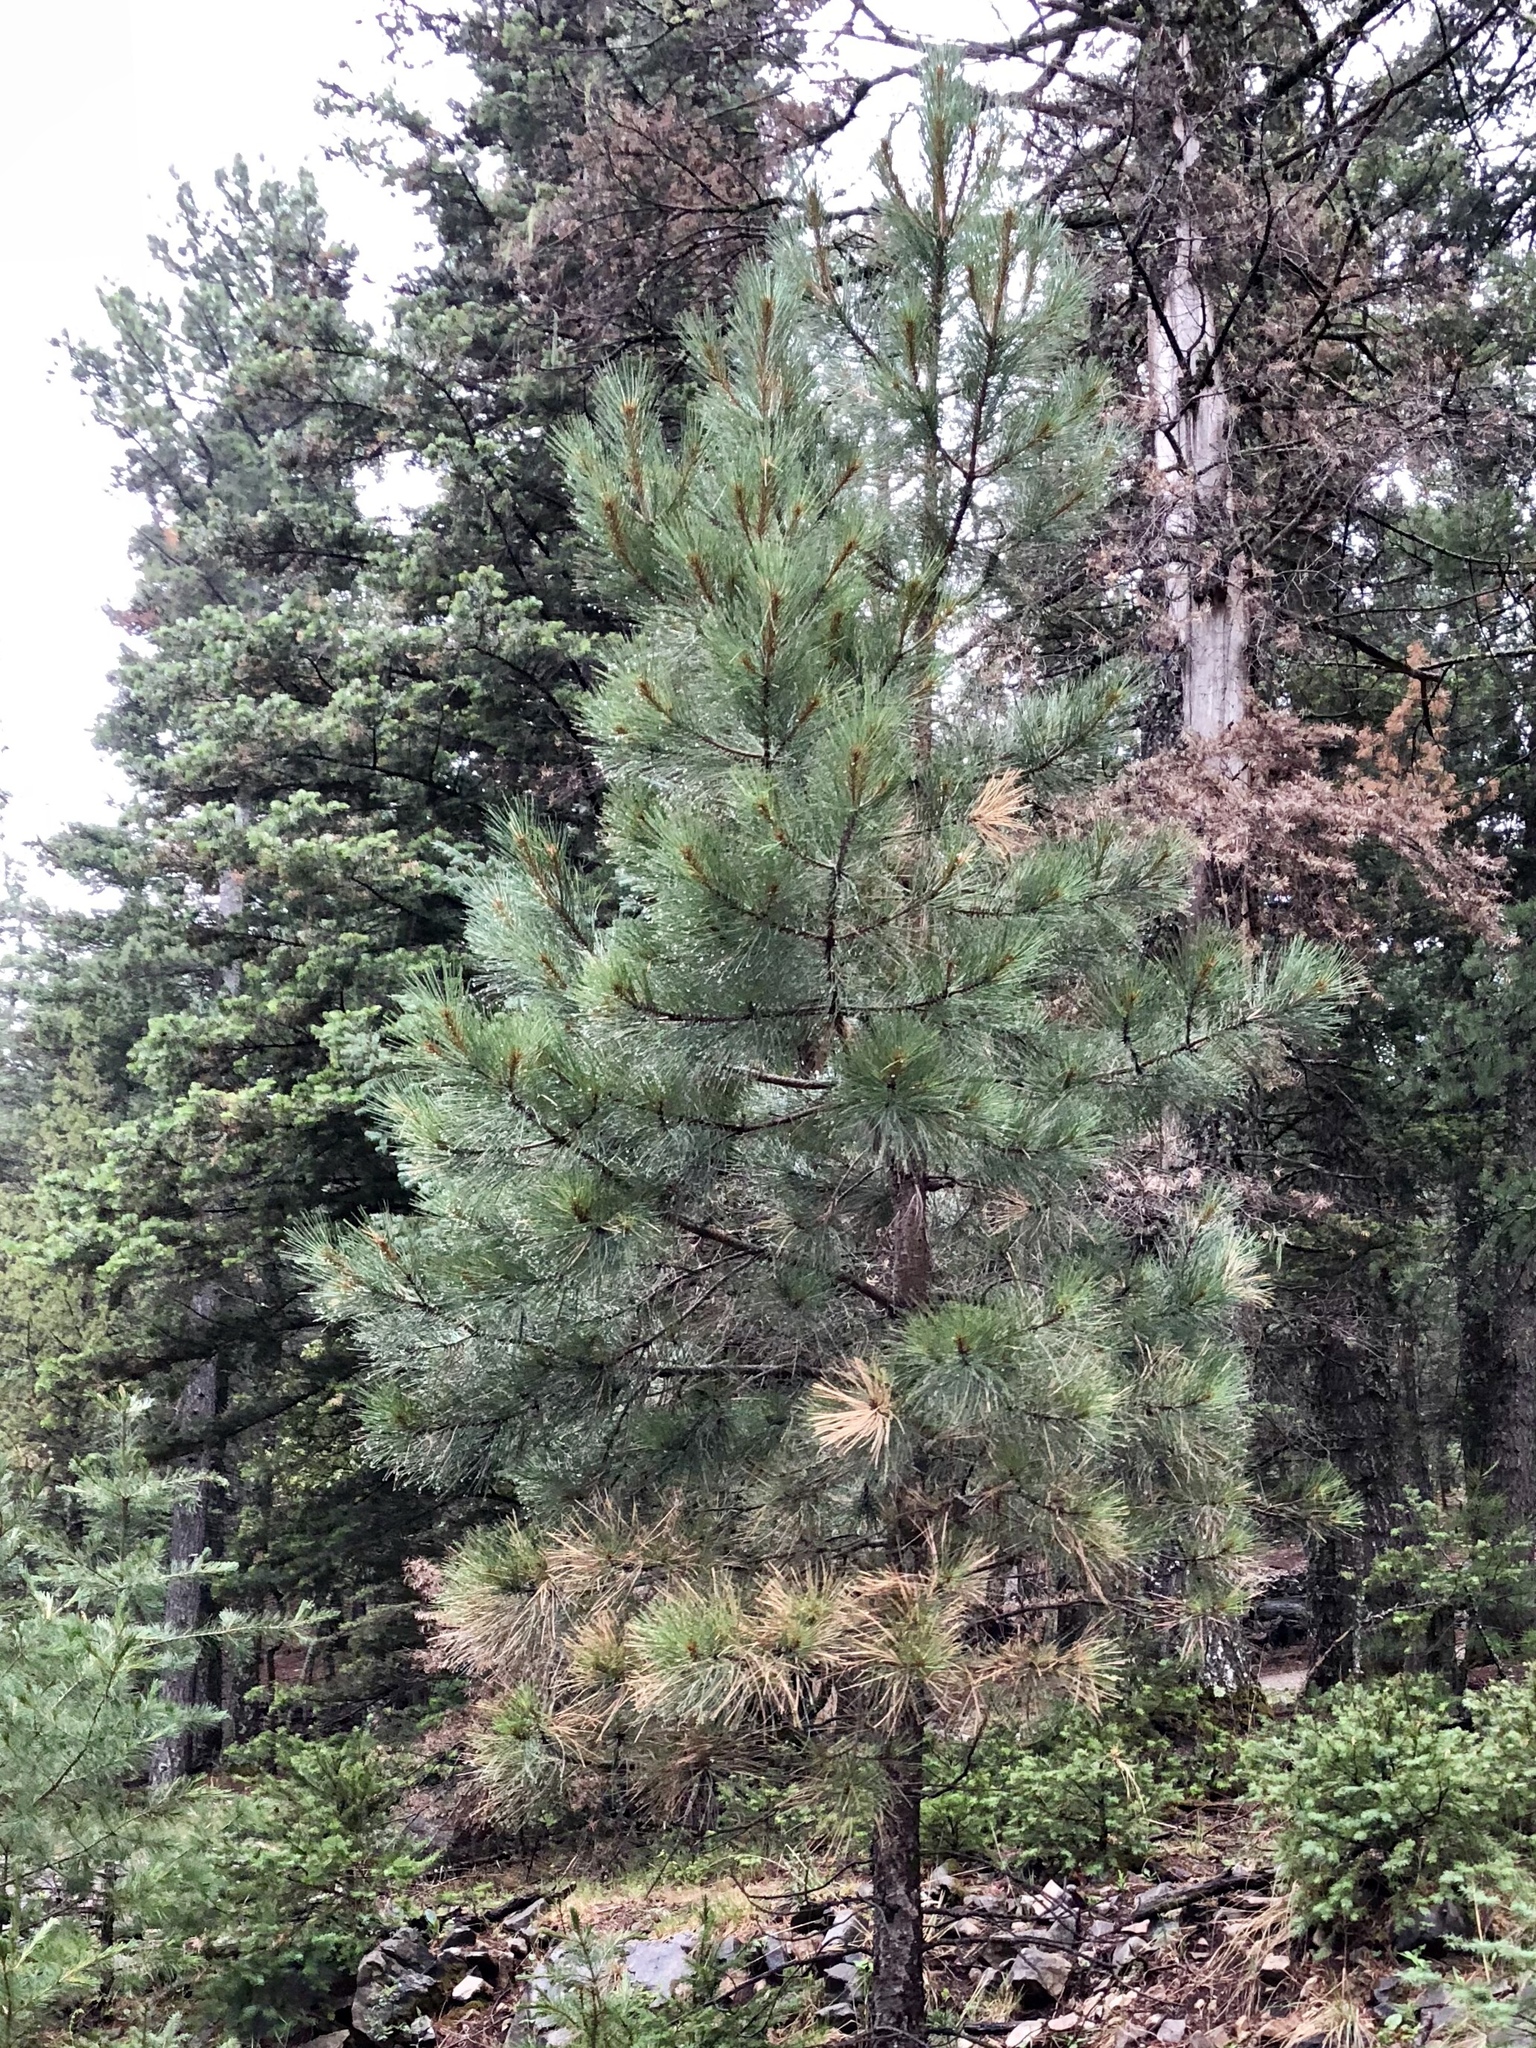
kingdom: Plantae
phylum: Tracheophyta
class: Pinopsida
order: Pinales
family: Pinaceae
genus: Pinus
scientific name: Pinus ponderosa
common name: Western yellow-pine
